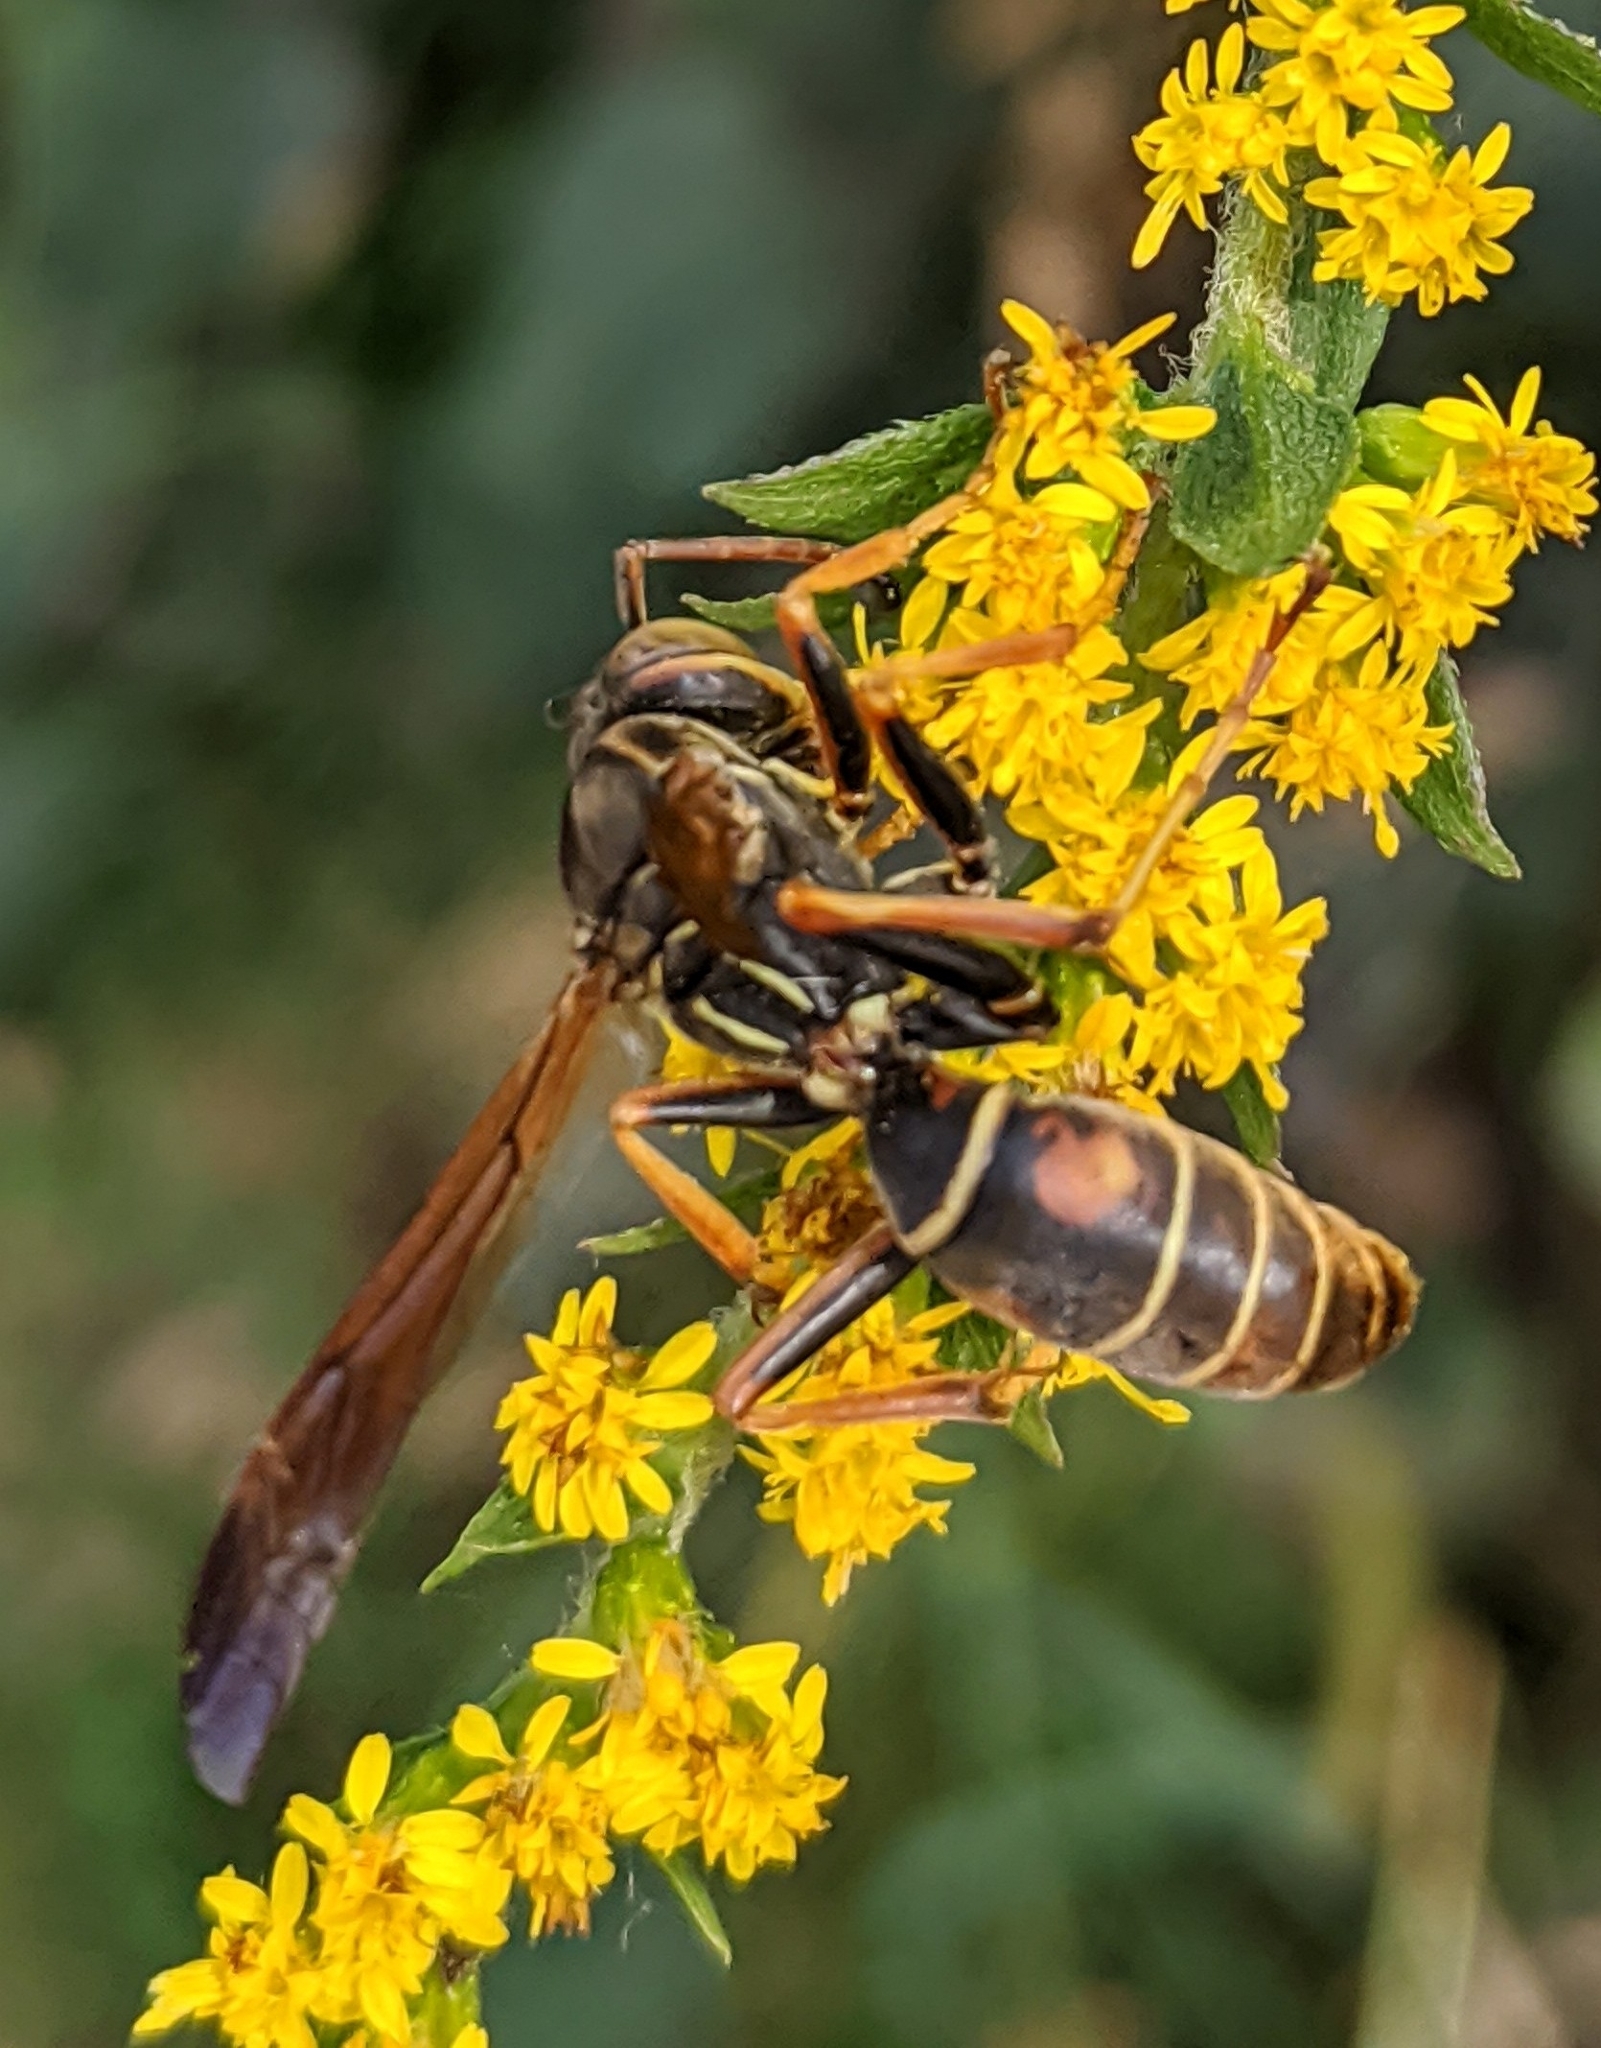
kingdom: Animalia
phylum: Arthropoda
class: Insecta
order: Hymenoptera
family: Eumenidae
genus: Polistes
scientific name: Polistes fuscatus
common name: Dark paper wasp
